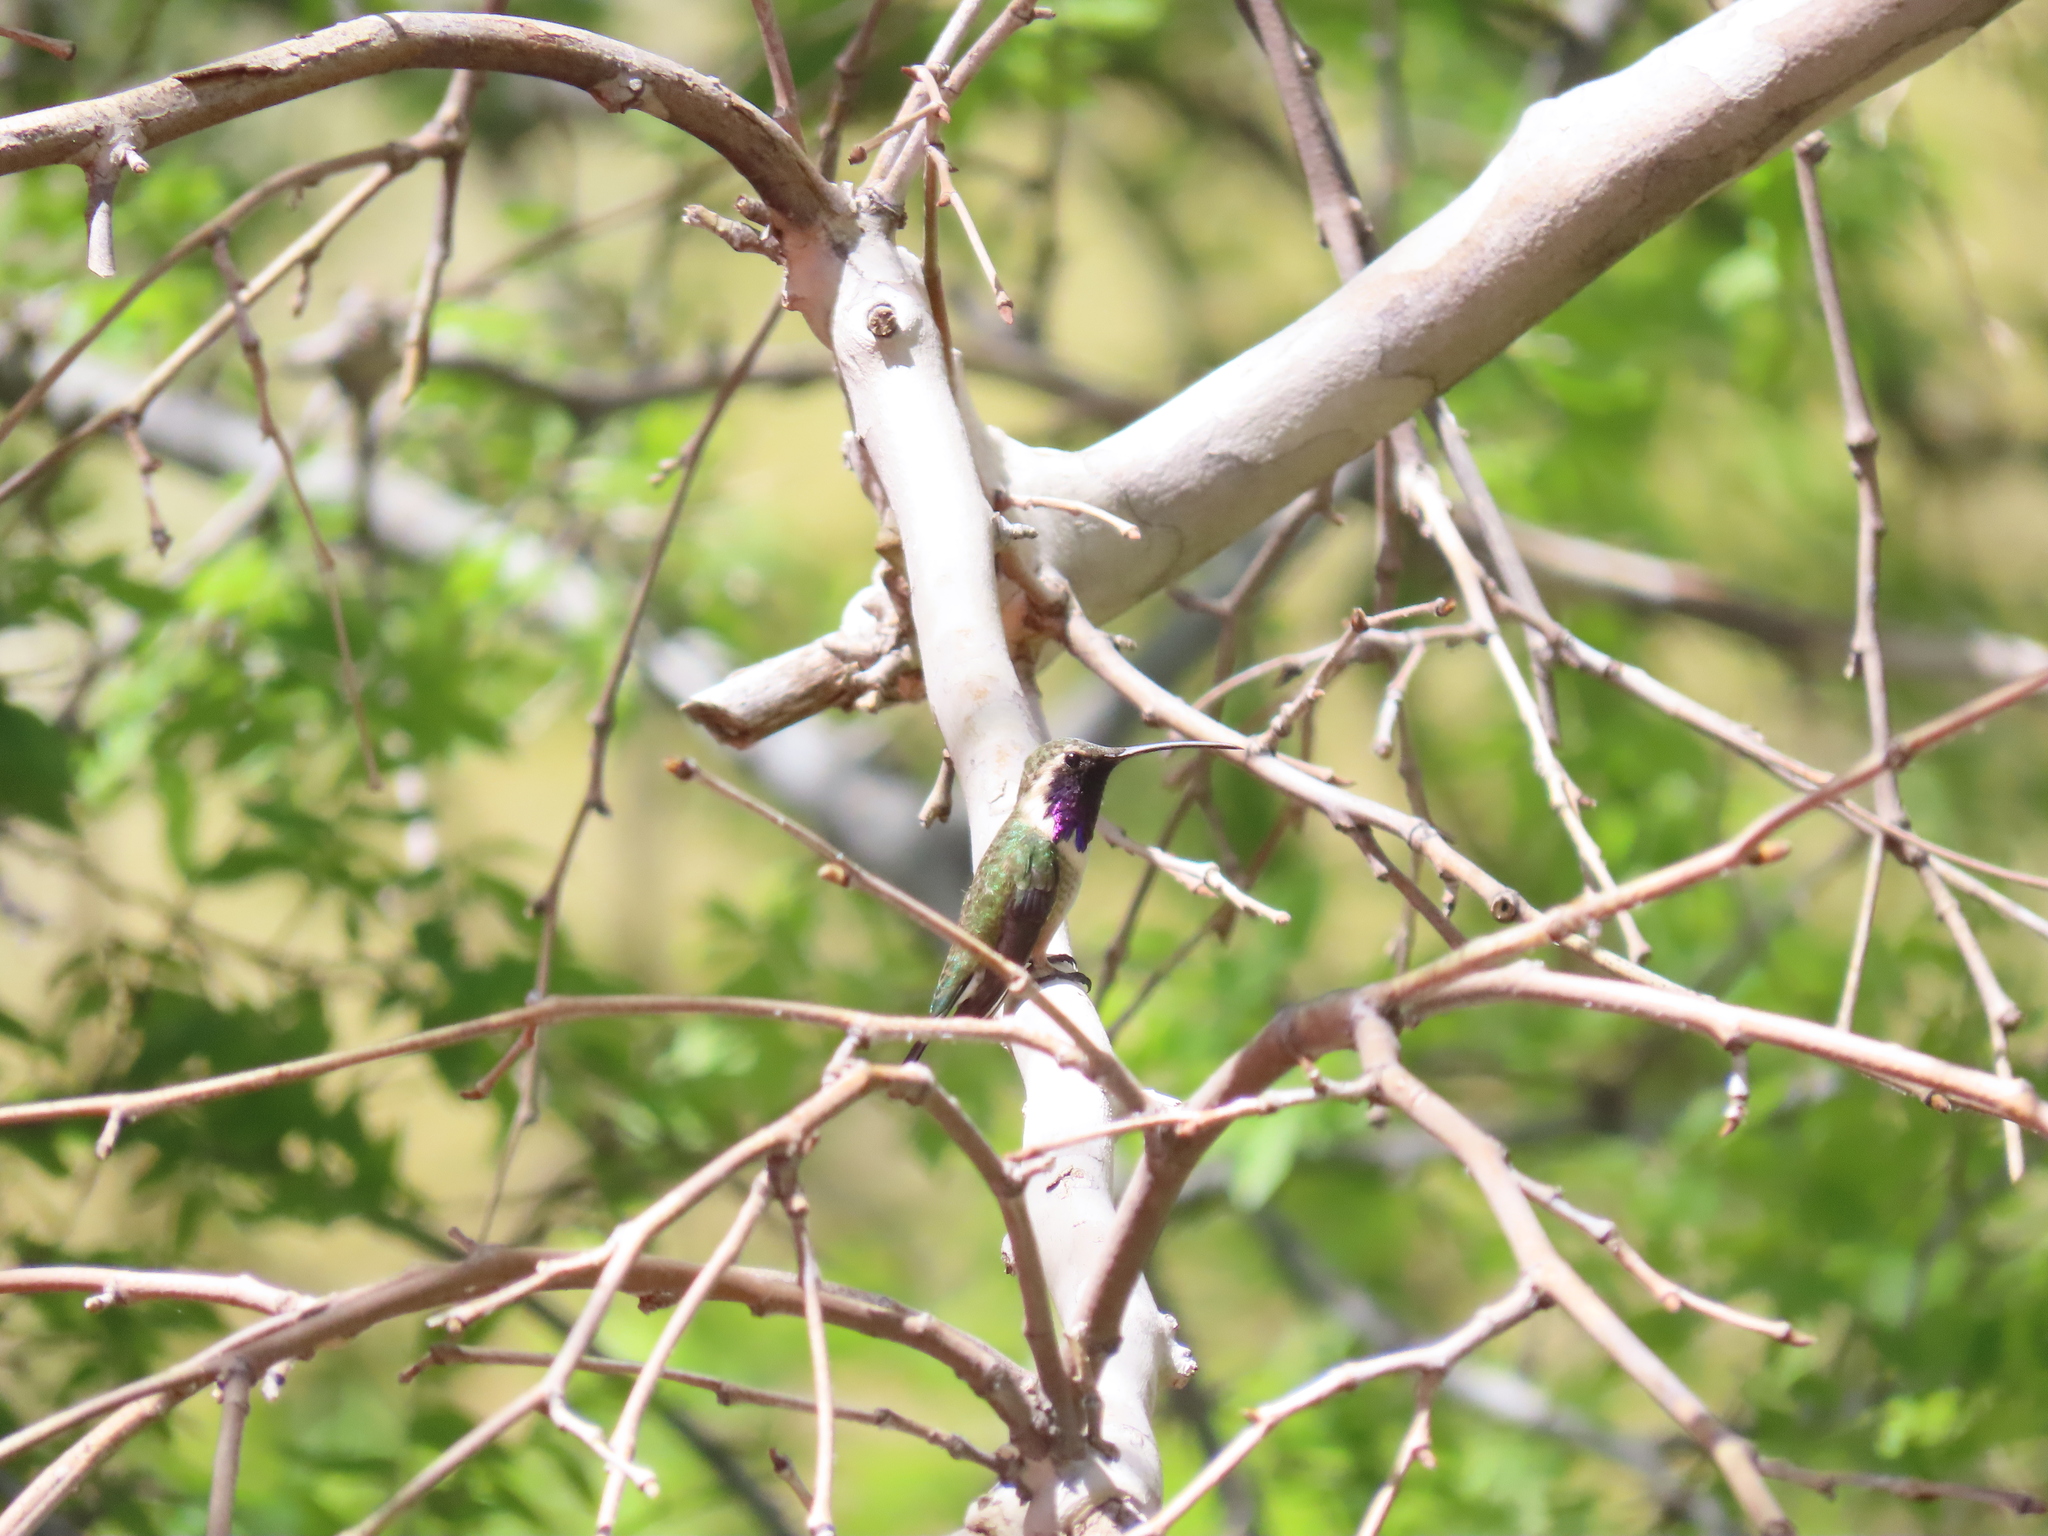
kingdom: Animalia
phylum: Chordata
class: Aves
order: Apodiformes
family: Trochilidae
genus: Calothorax
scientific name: Calothorax lucifer
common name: Lucifer sheartail
